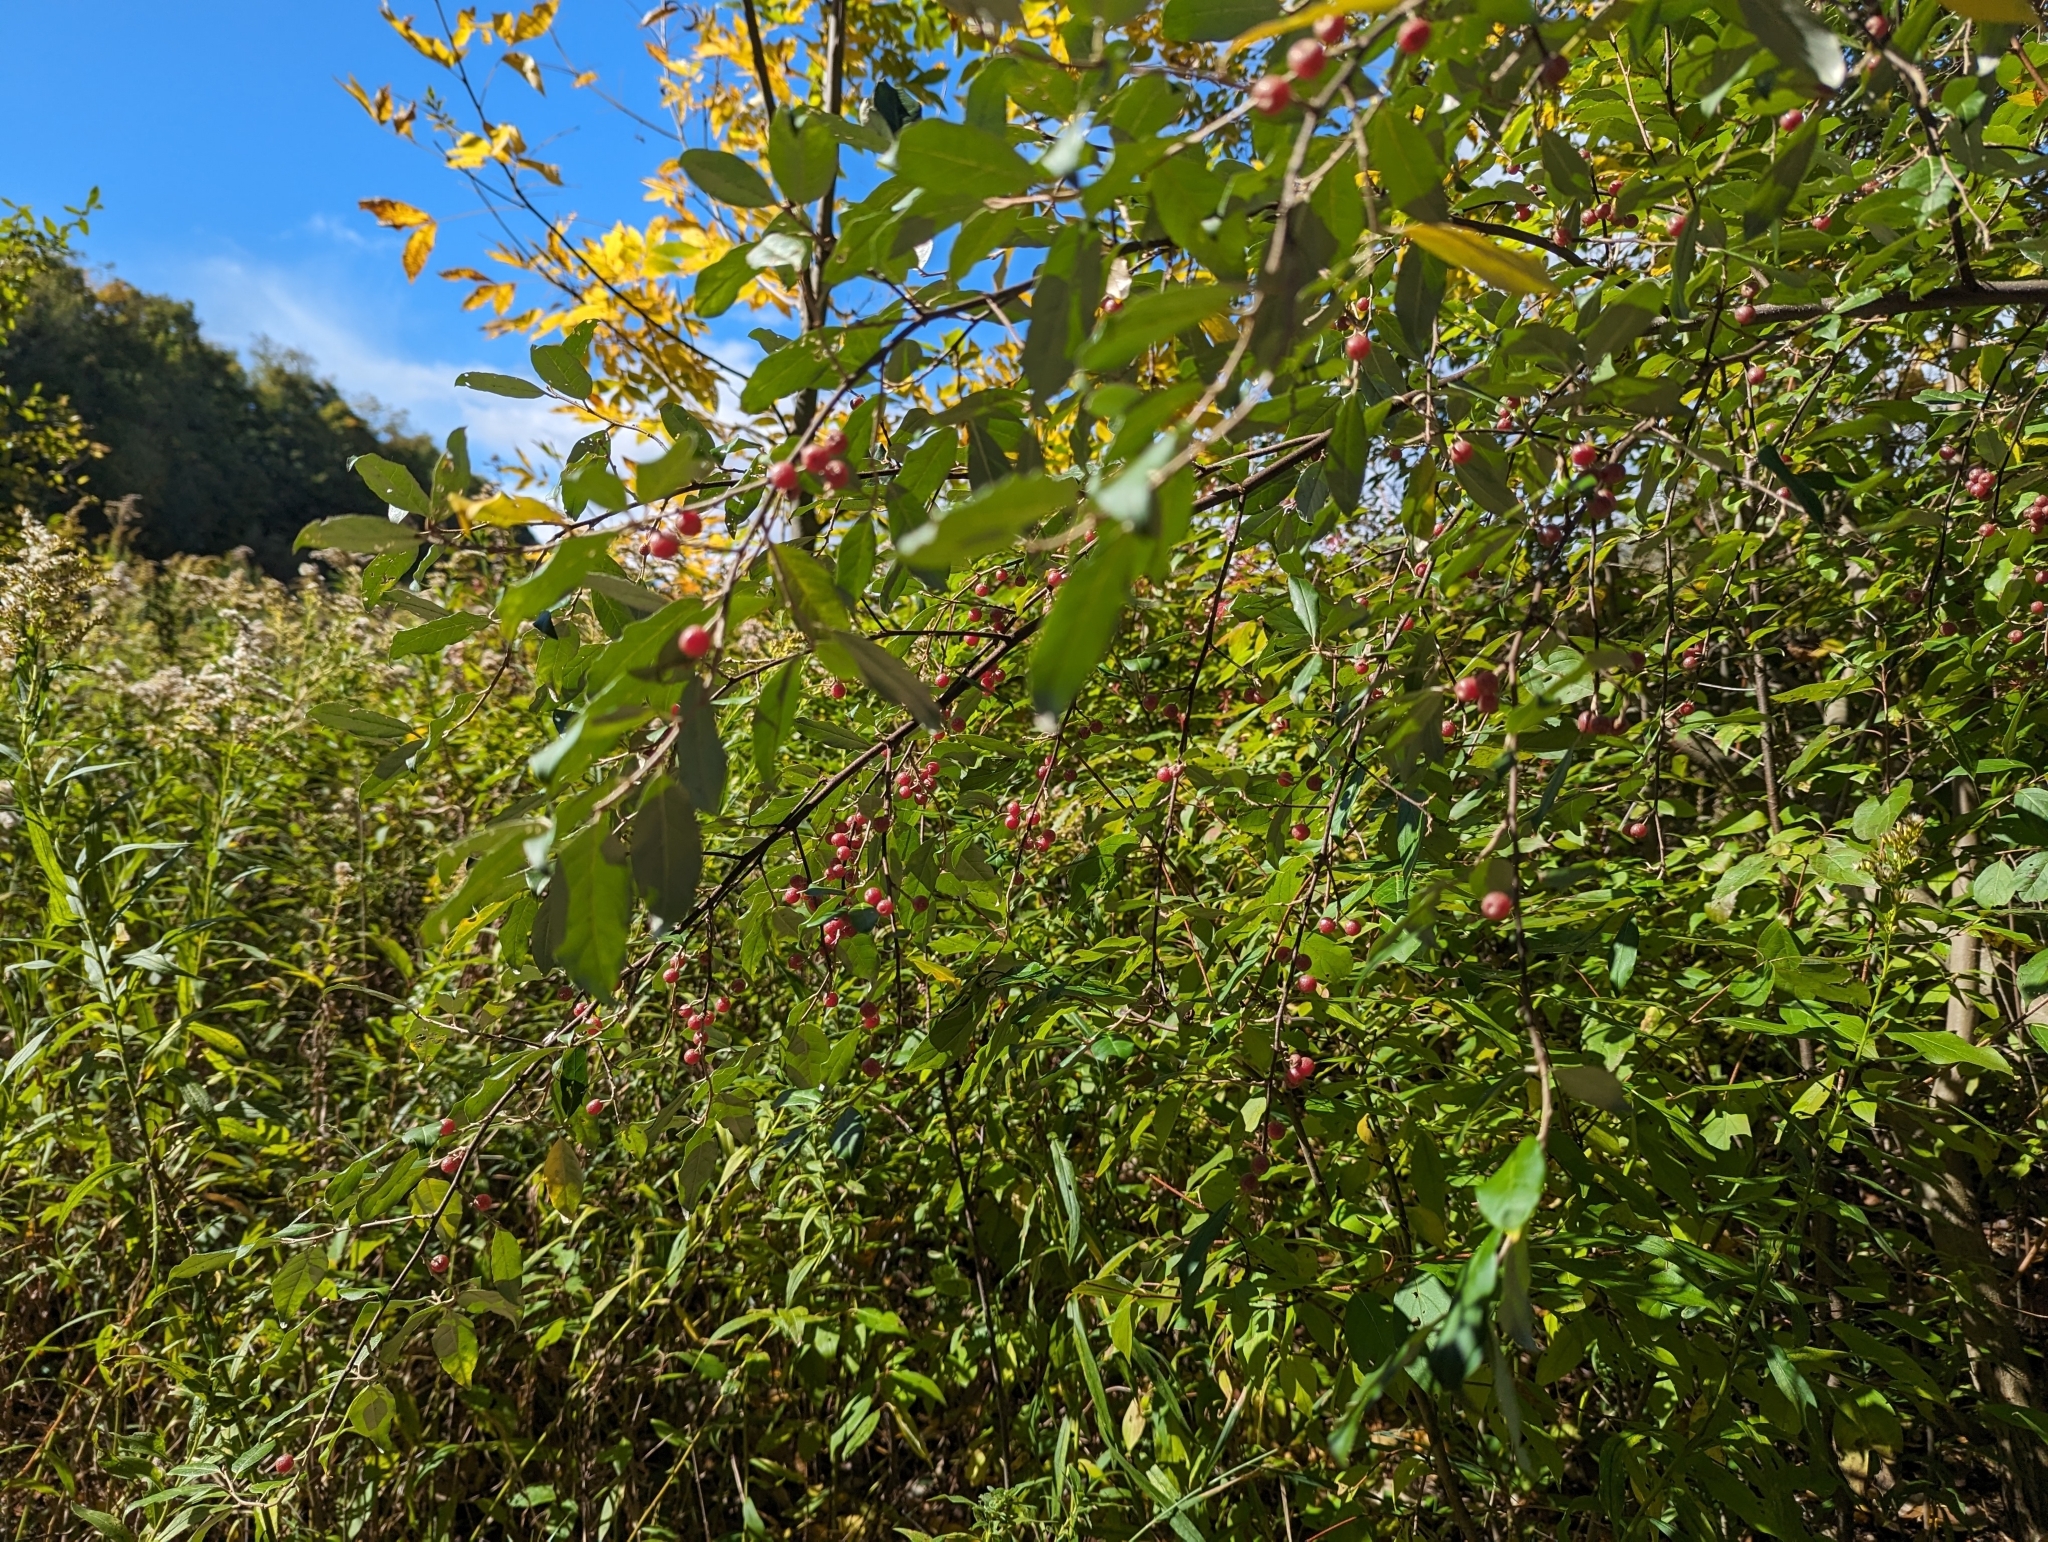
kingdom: Plantae
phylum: Tracheophyta
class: Magnoliopsida
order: Rosales
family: Elaeagnaceae
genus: Elaeagnus
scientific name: Elaeagnus umbellata
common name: Autumn olive
